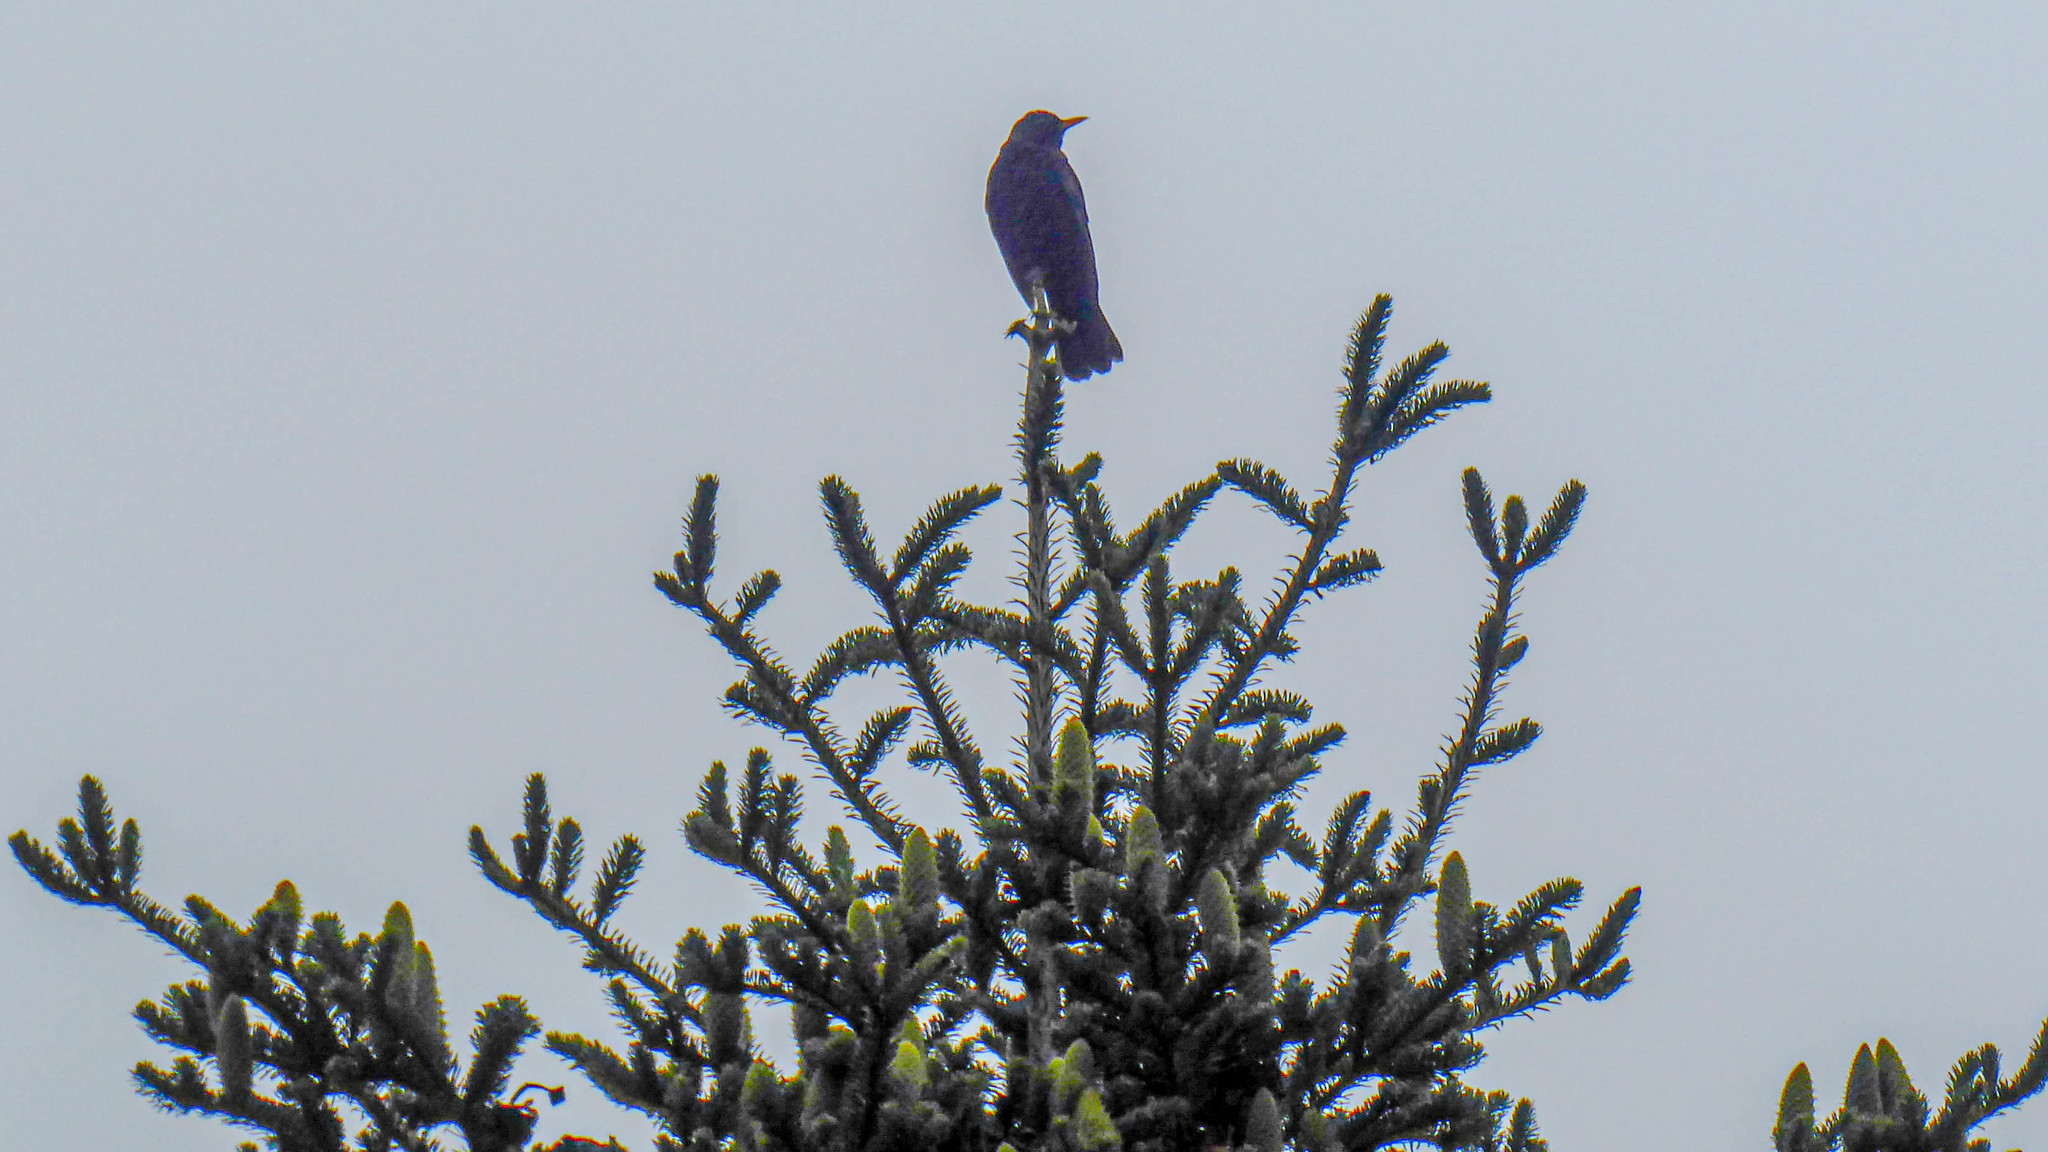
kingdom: Animalia
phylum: Chordata
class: Aves
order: Passeriformes
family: Turdidae
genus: Turdus
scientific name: Turdus merula
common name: Common blackbird
